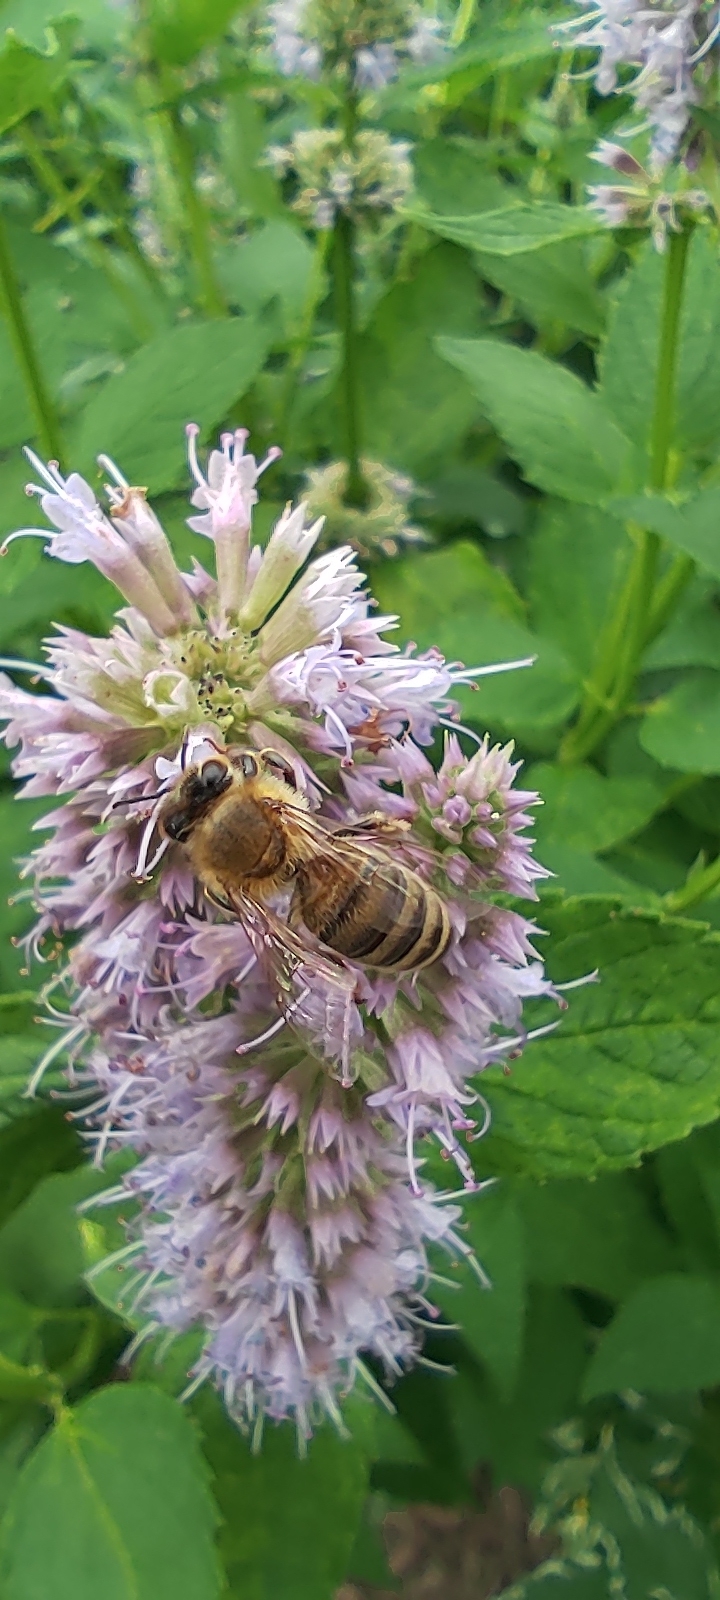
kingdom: Animalia
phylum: Arthropoda
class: Insecta
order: Hymenoptera
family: Apidae
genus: Apis
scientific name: Apis mellifera
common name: Honey bee
